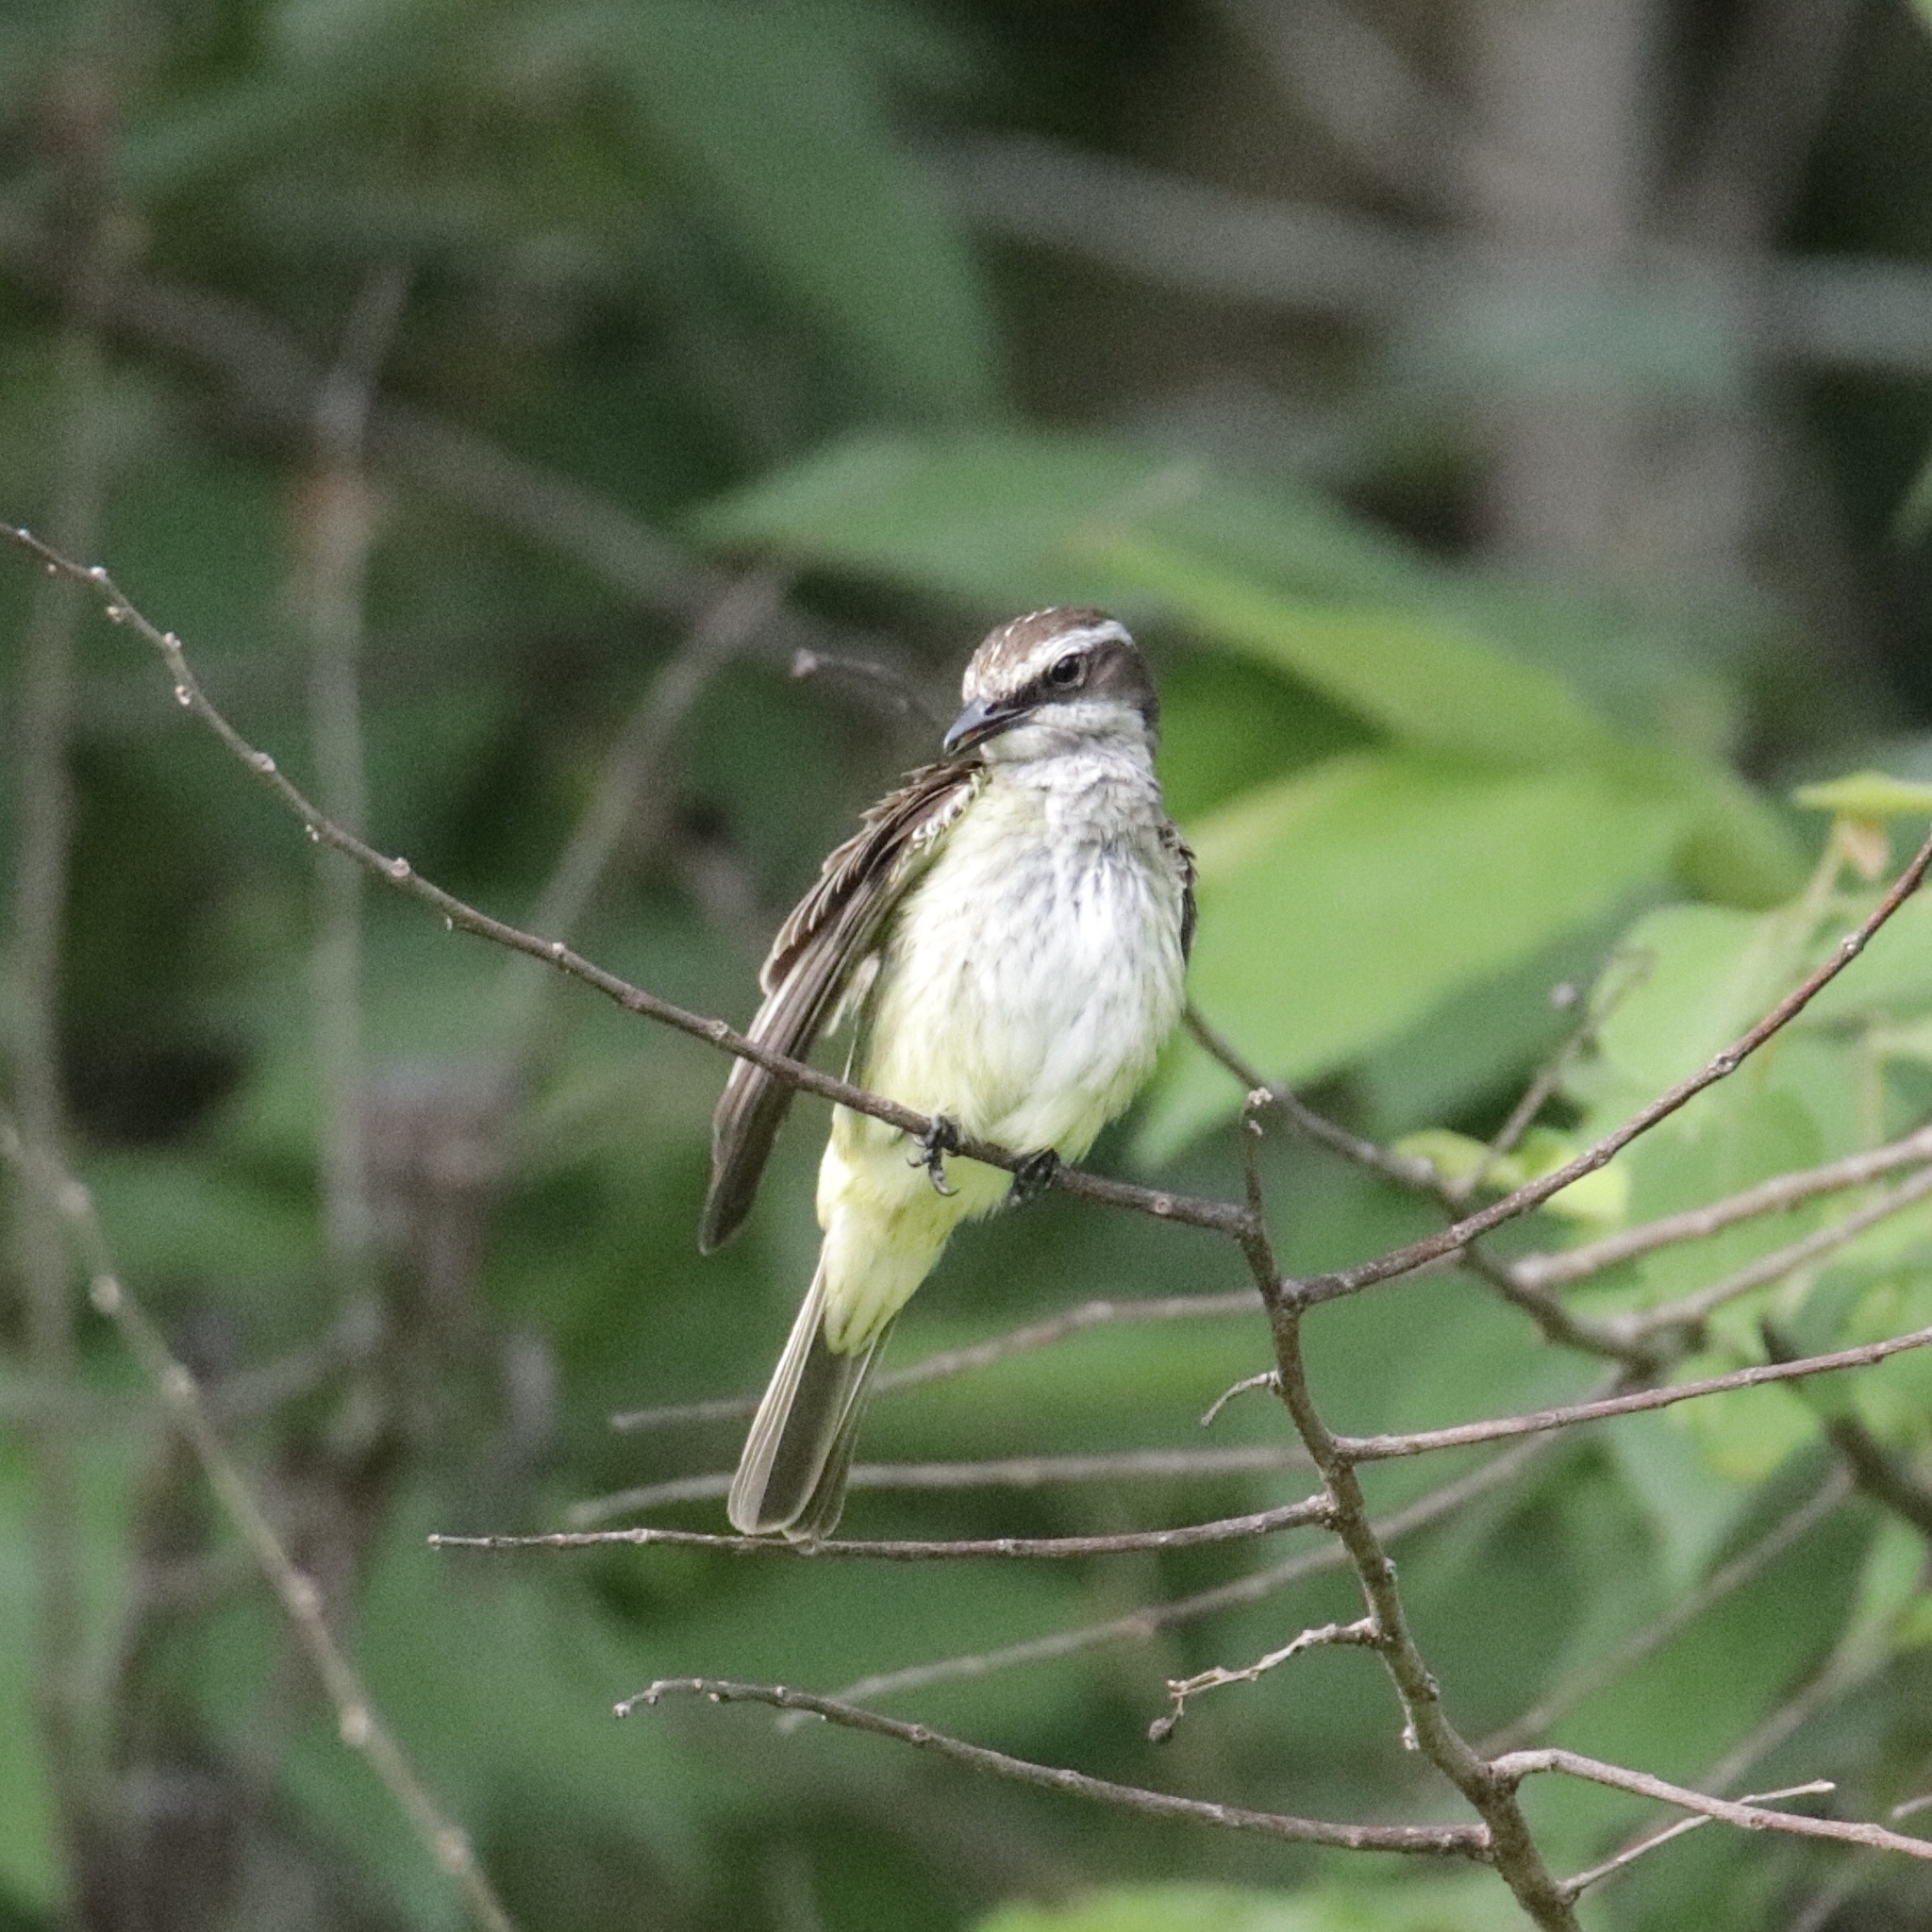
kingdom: Animalia
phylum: Chordata
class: Aves
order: Passeriformes
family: Tyrannidae
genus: Legatus
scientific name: Legatus leucophaius
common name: Piratic flycatcher
